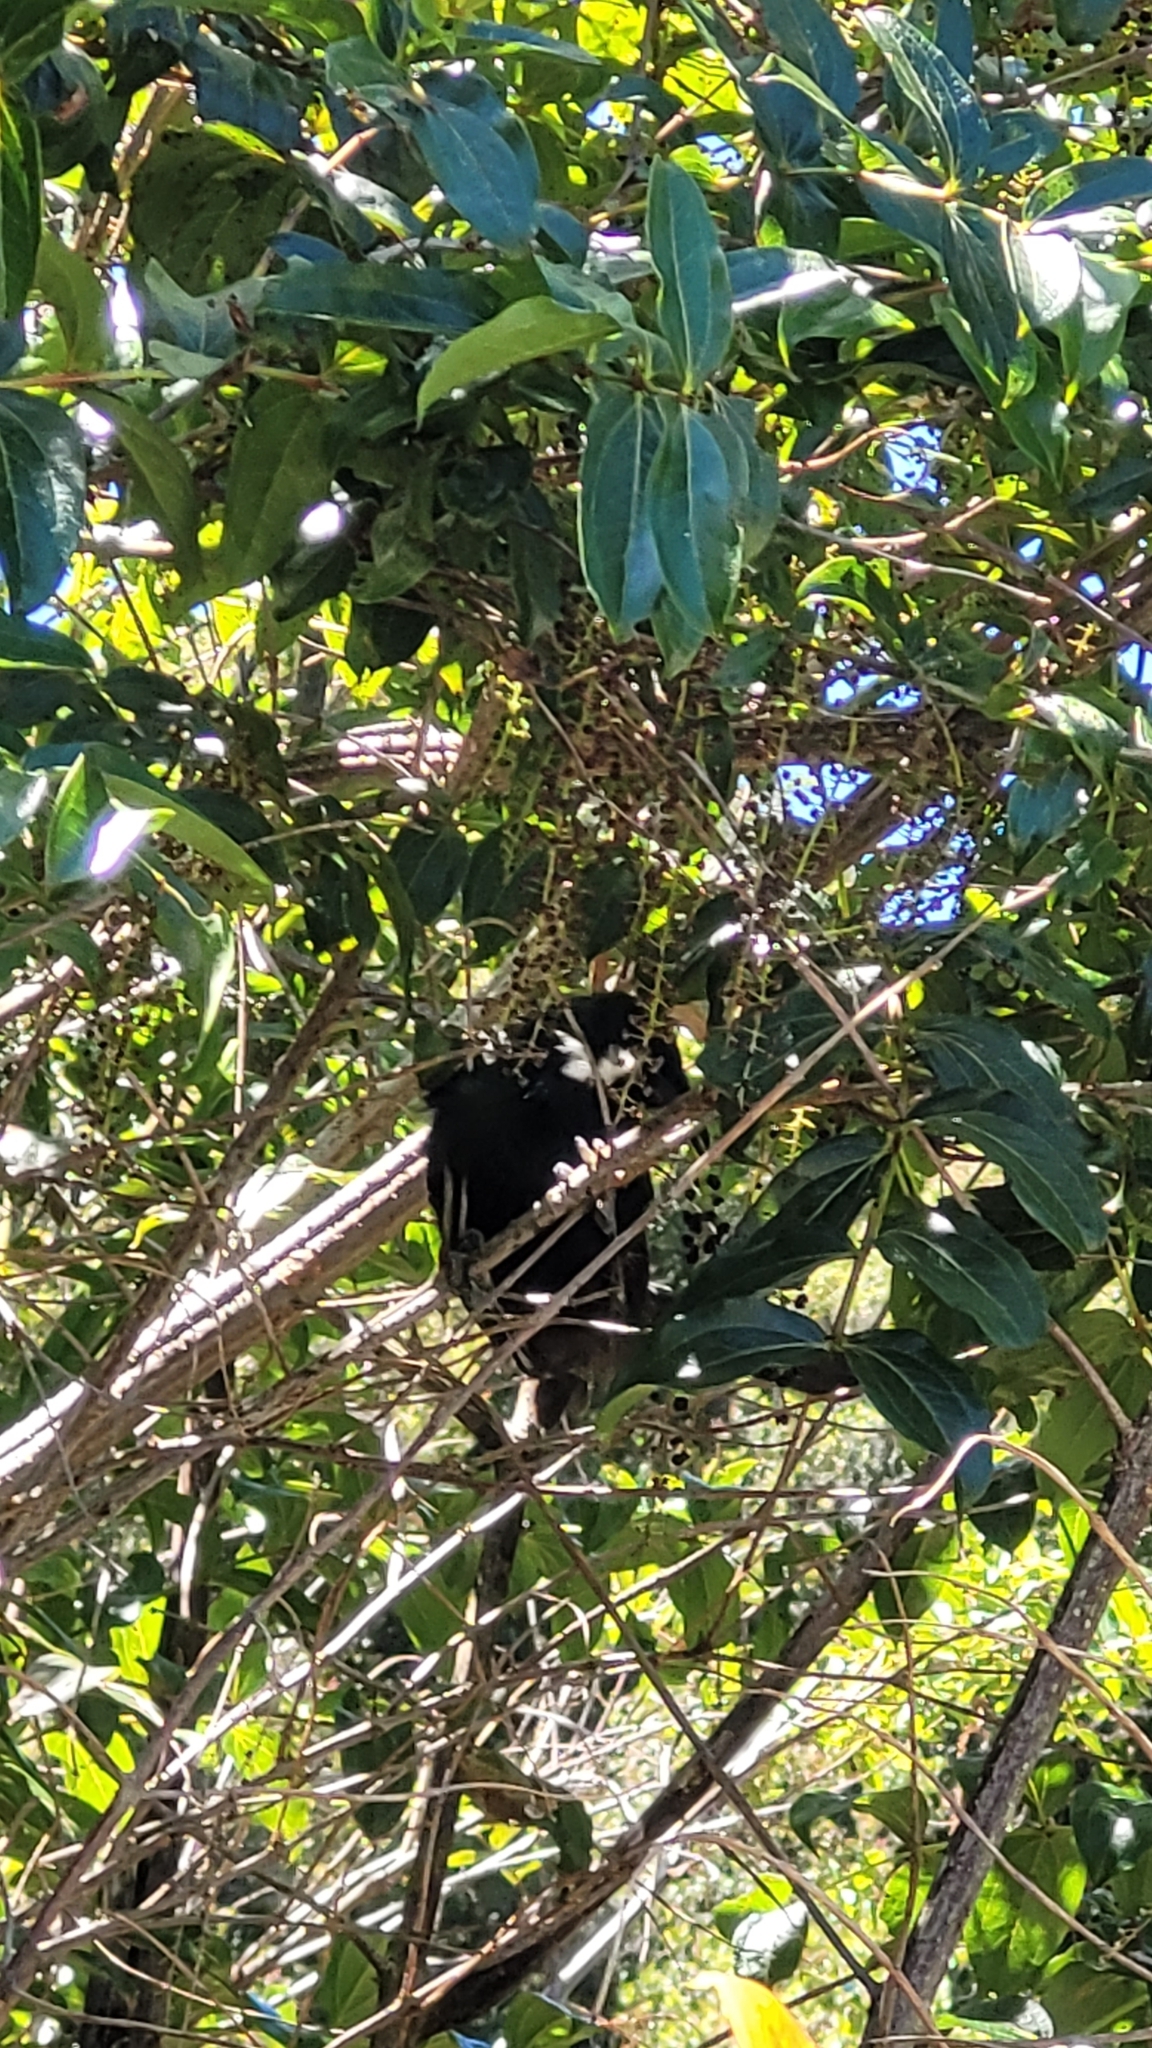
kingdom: Animalia
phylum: Chordata
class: Aves
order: Passeriformes
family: Meliphagidae
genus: Prosthemadera
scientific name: Prosthemadera novaeseelandiae
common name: Tui
